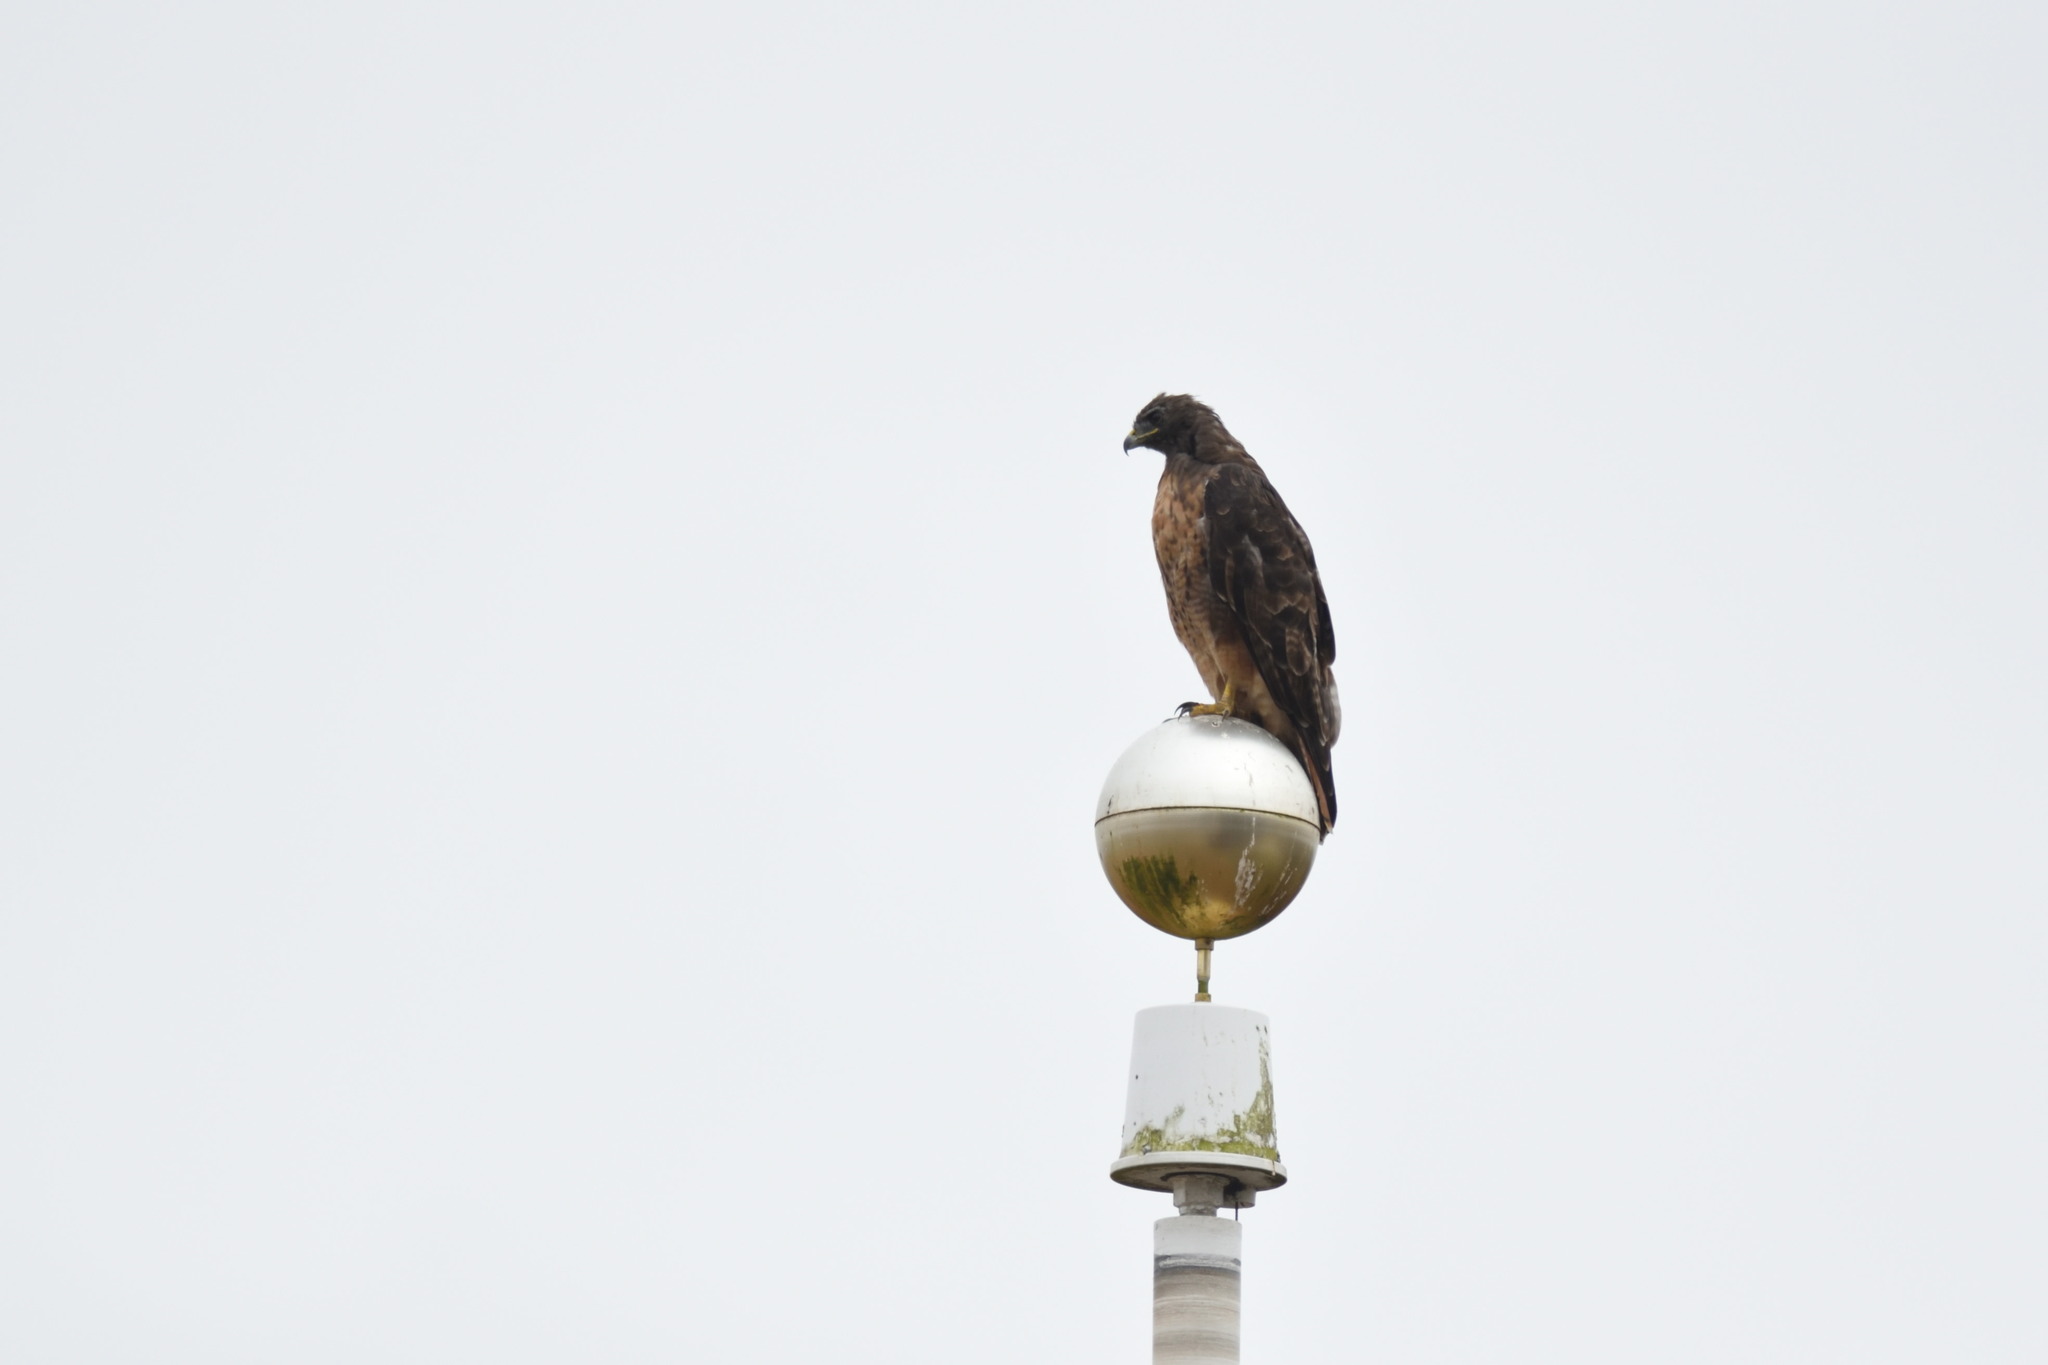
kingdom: Animalia
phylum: Chordata
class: Aves
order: Accipitriformes
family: Accipitridae
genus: Buteo
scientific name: Buteo jamaicensis
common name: Red-tailed hawk
